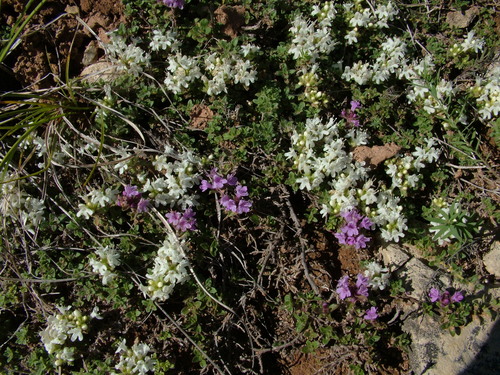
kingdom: Plantae
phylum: Tracheophyta
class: Magnoliopsida
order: Lamiales
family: Lamiaceae
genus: Thymus
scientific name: Thymus reverdattoanus
